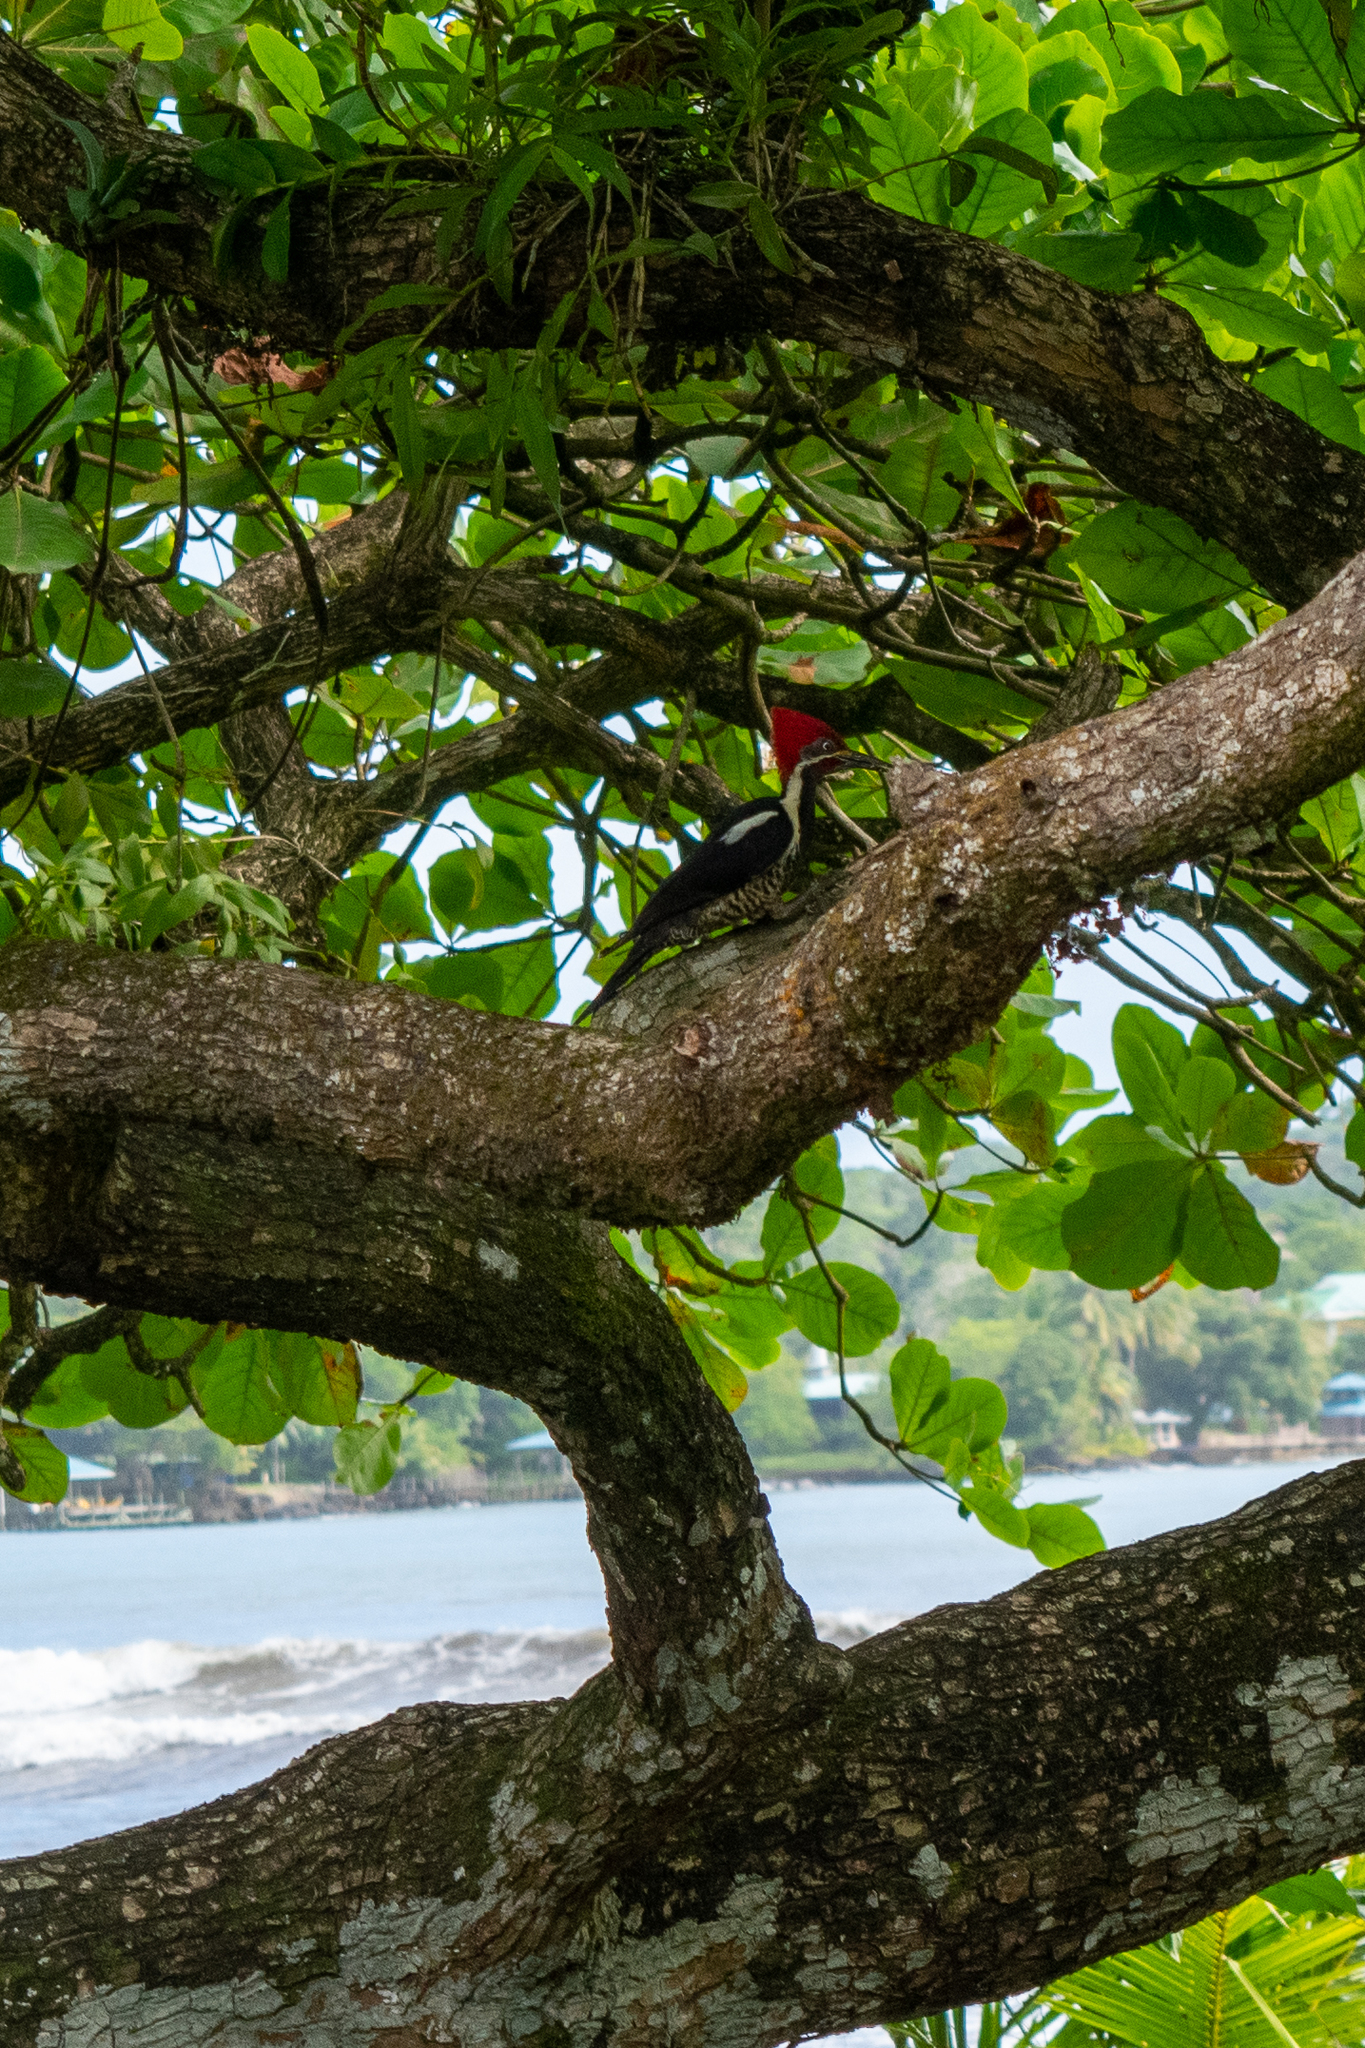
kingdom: Animalia
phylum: Chordata
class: Aves
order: Piciformes
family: Picidae
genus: Dryocopus
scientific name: Dryocopus lineatus
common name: Lineated woodpecker
